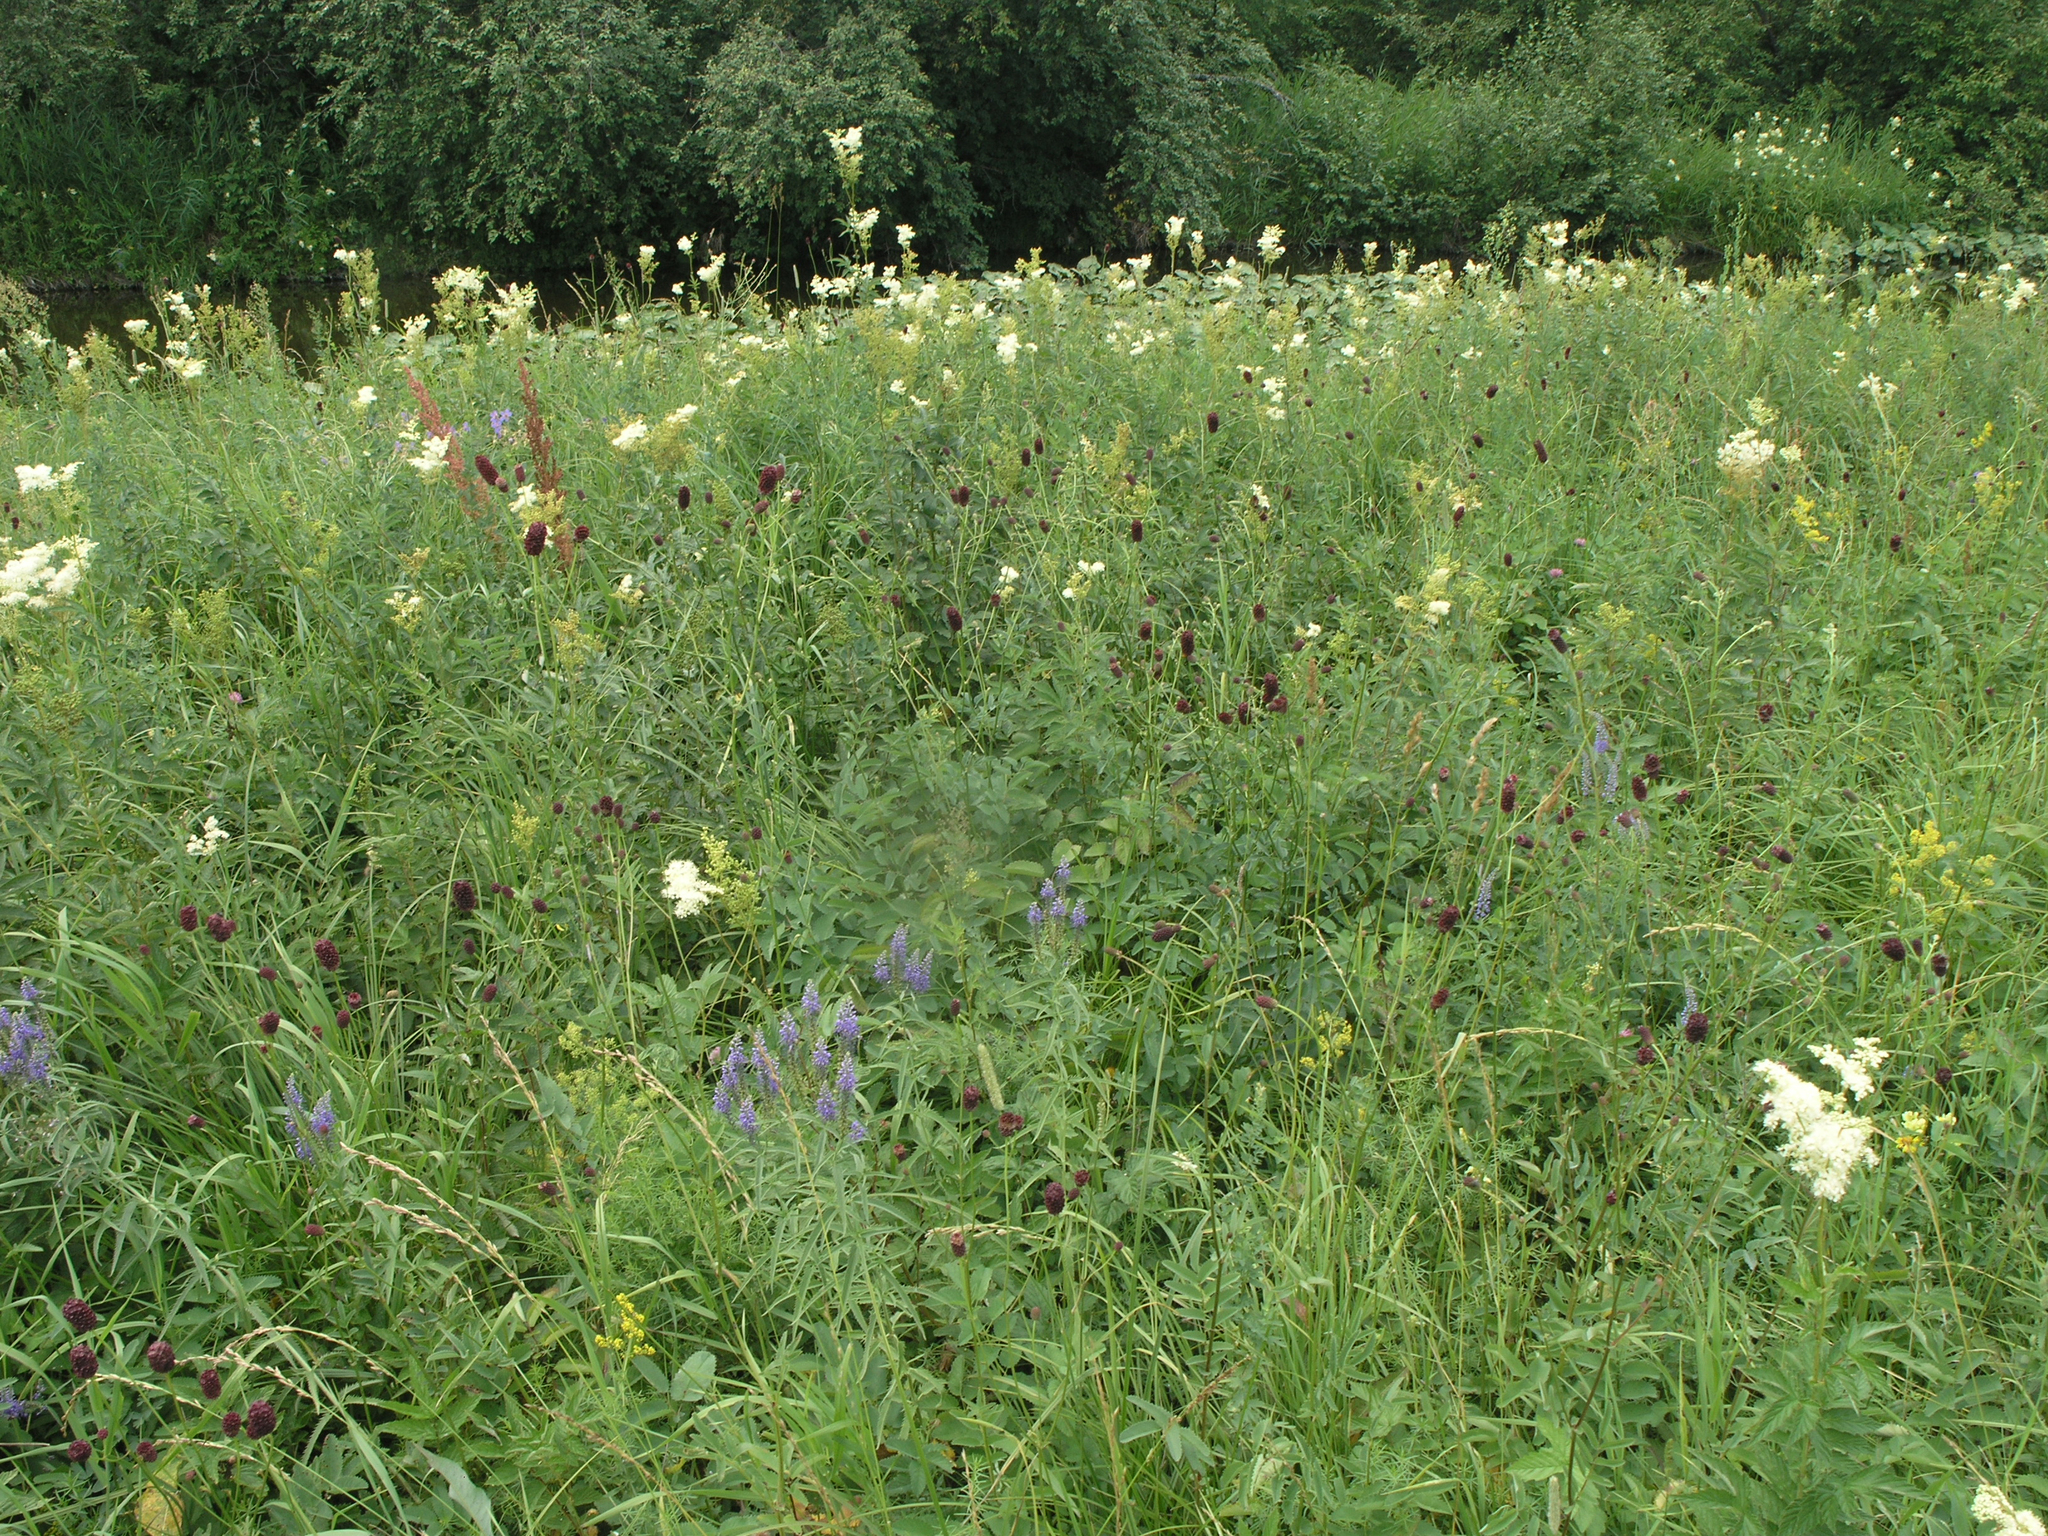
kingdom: Plantae
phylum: Tracheophyta
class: Magnoliopsida
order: Rosales
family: Rosaceae
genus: Filipendula
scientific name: Filipendula ulmaria
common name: Meadowsweet
